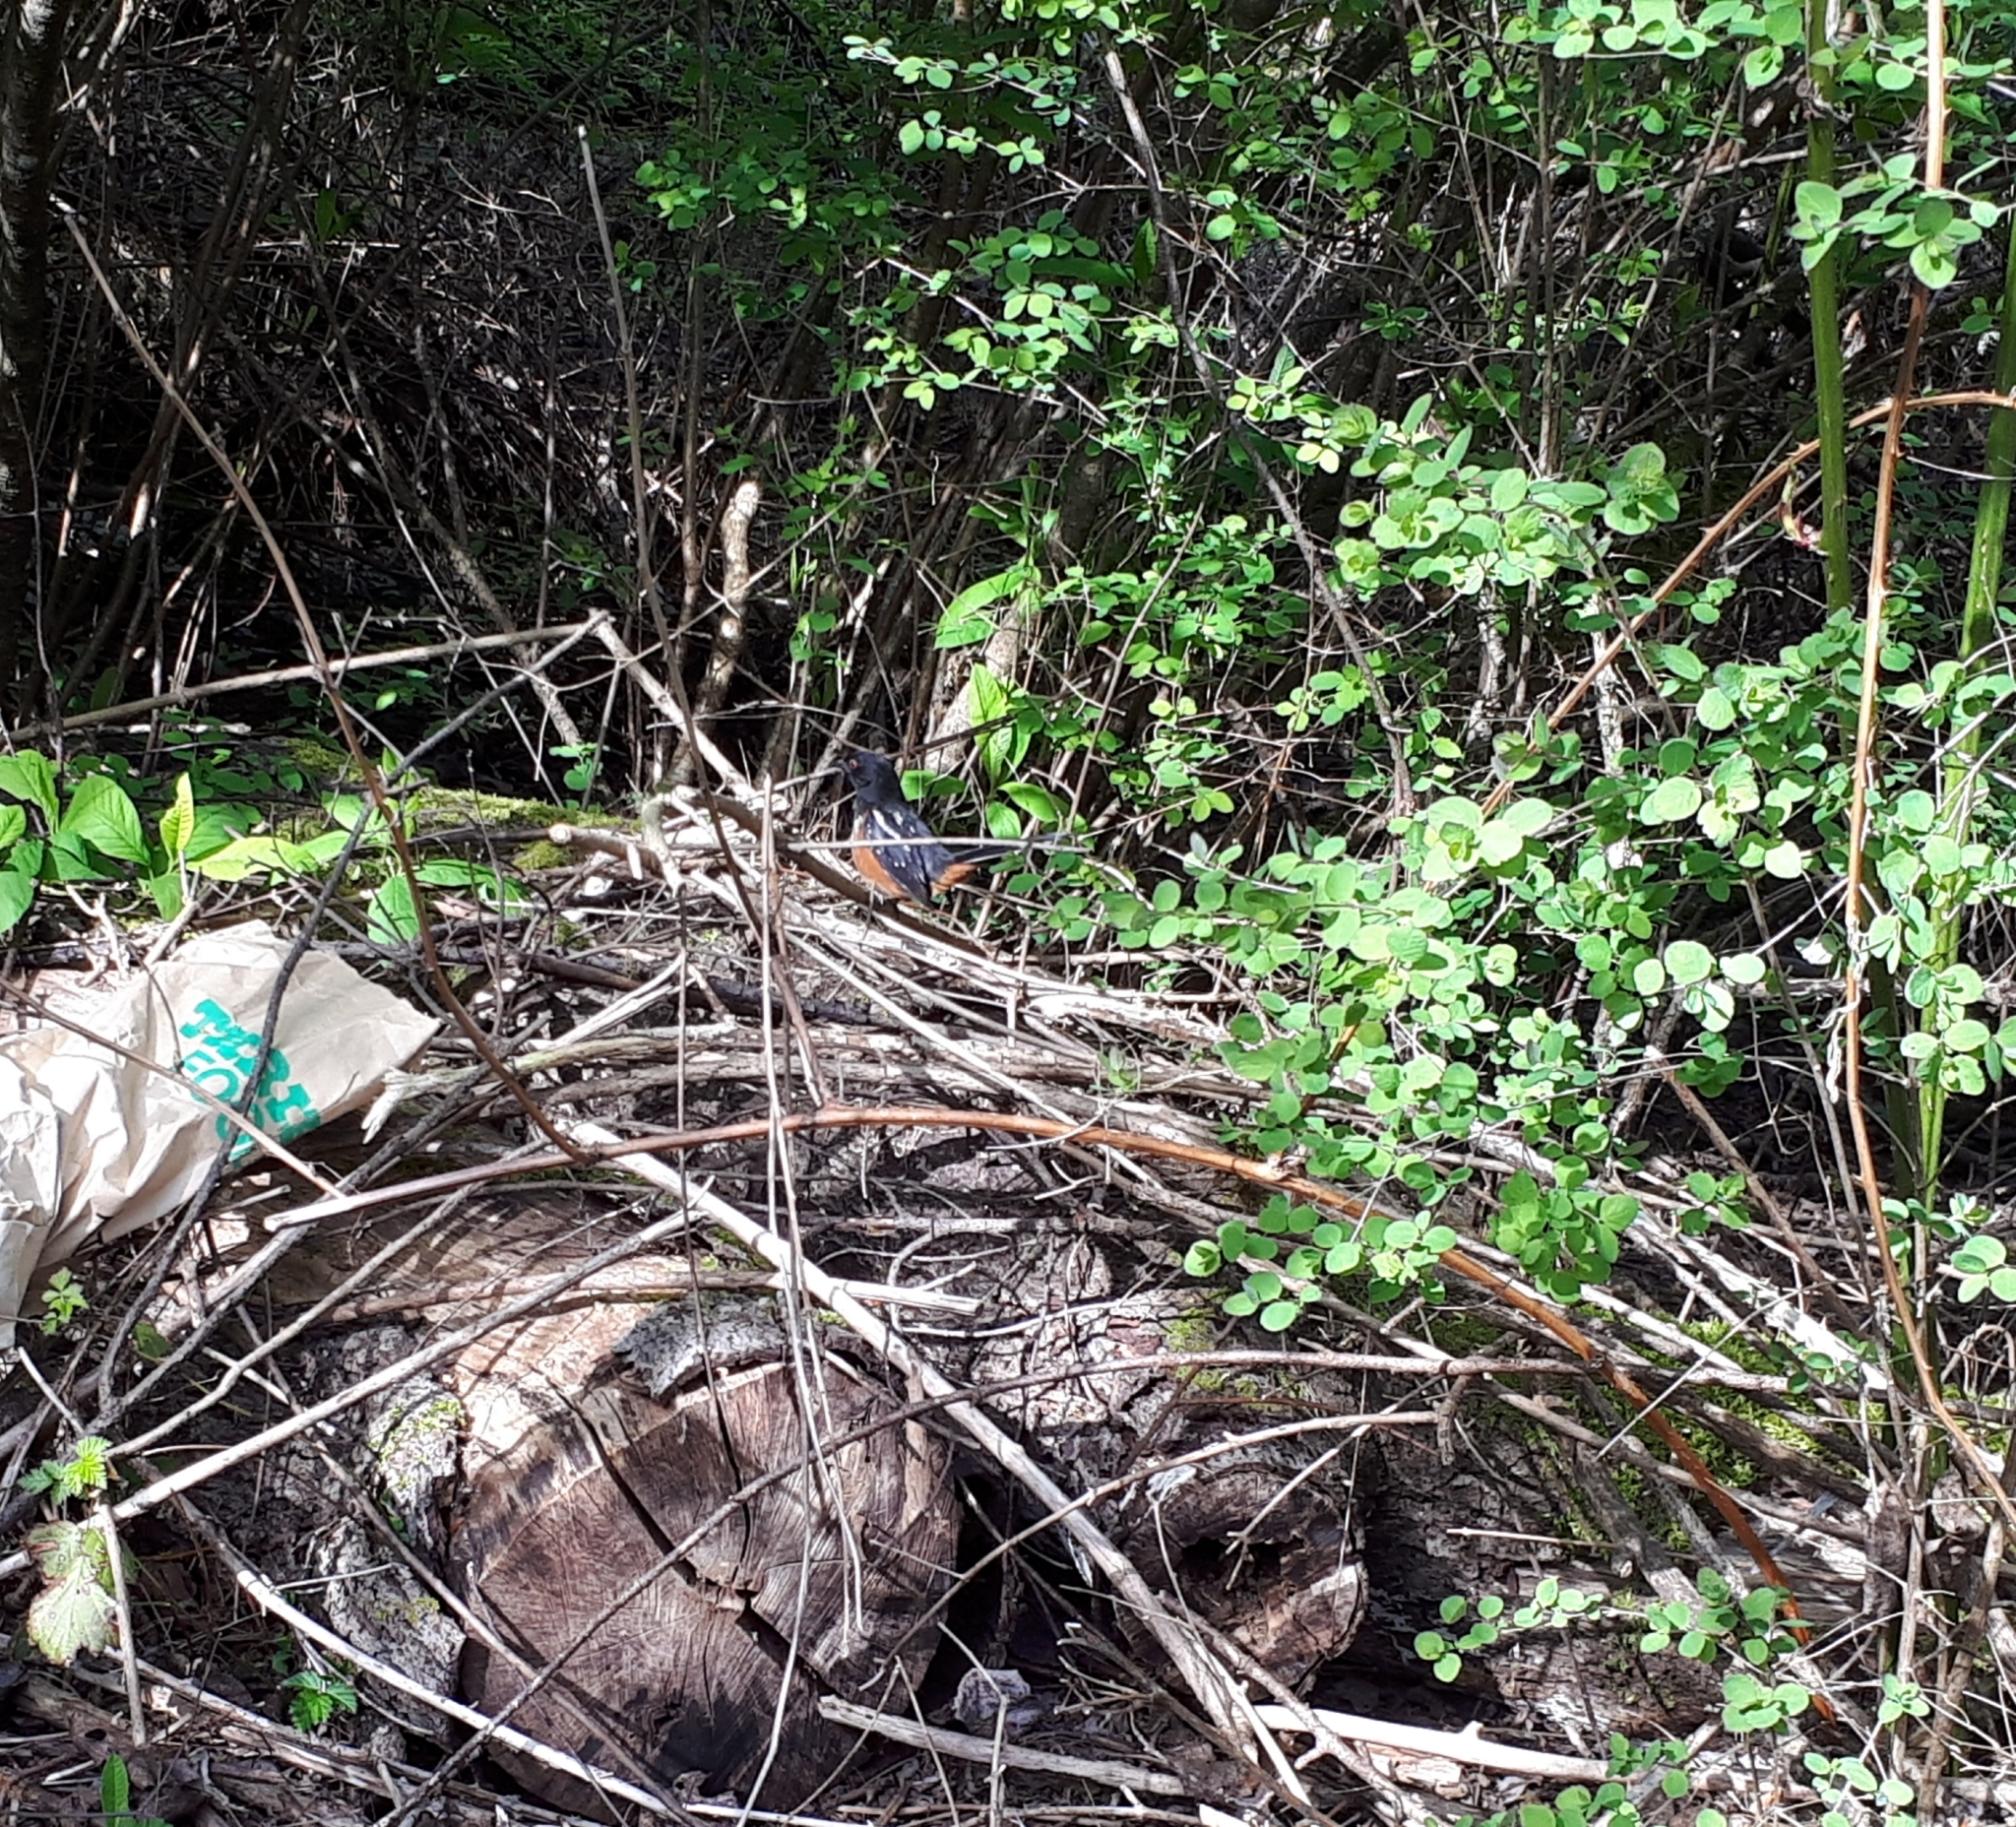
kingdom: Animalia
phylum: Chordata
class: Aves
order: Passeriformes
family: Passerellidae
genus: Pipilo
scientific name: Pipilo maculatus
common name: Spotted towhee
